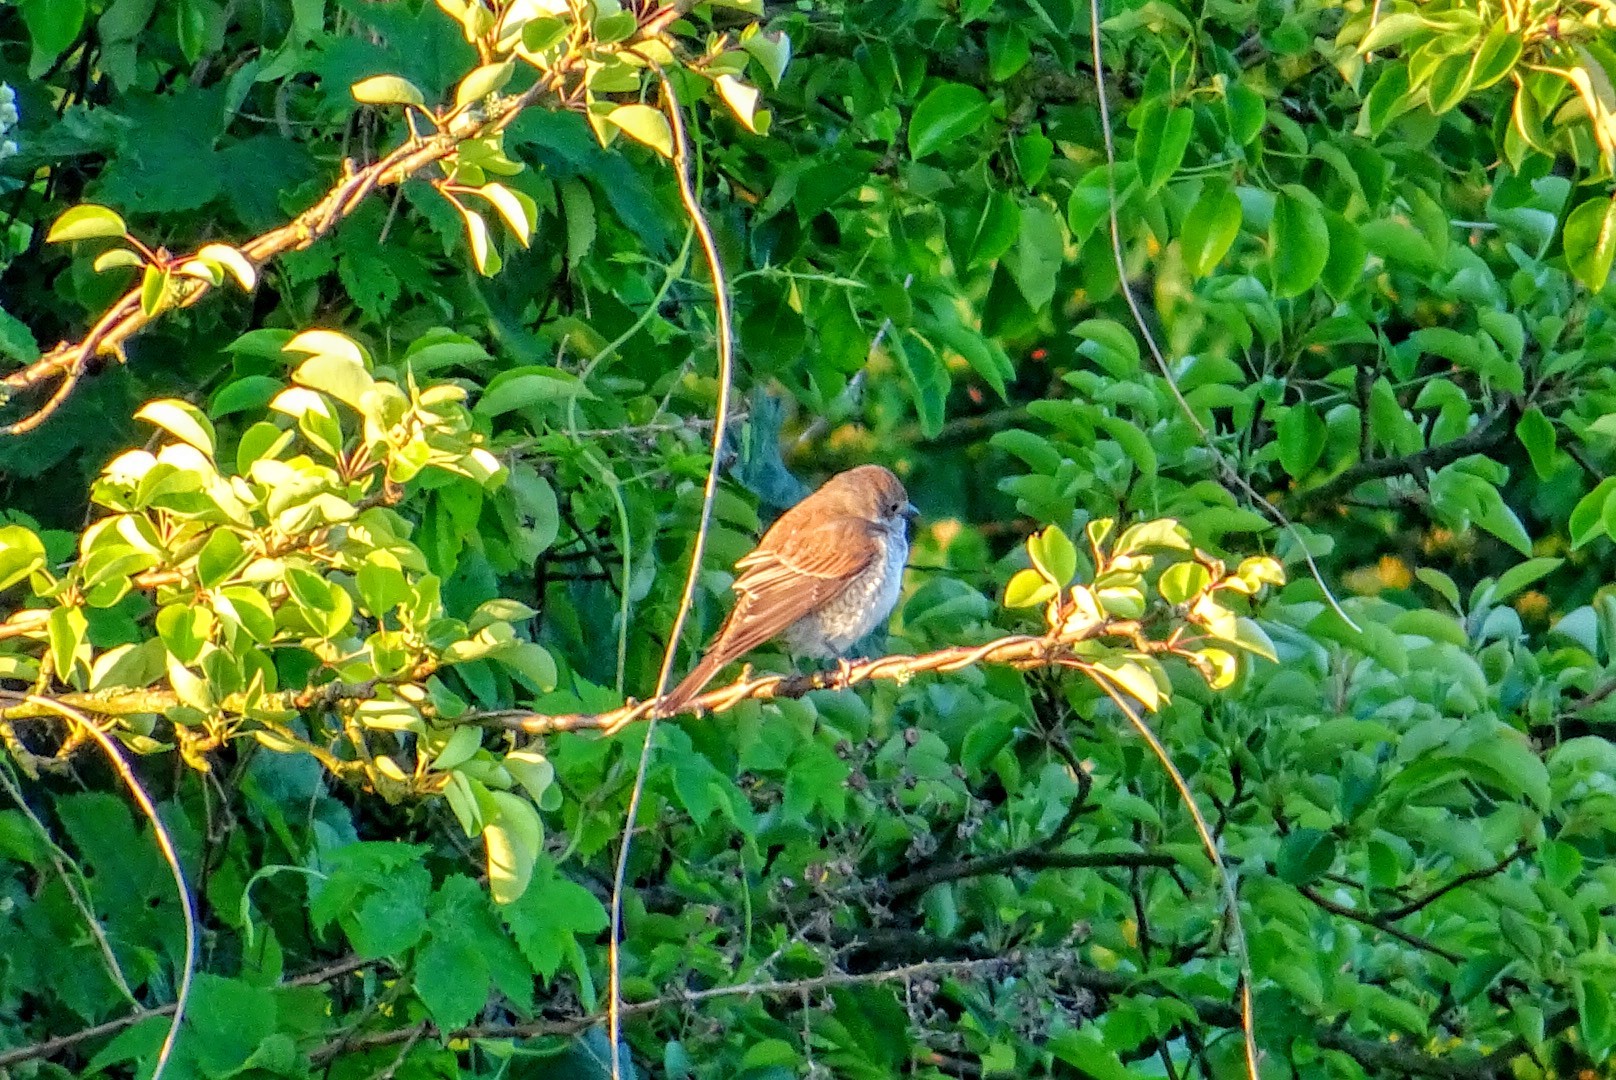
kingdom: Animalia
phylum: Chordata
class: Aves
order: Passeriformes
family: Laniidae
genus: Lanius
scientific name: Lanius collurio
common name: Red-backed shrike
